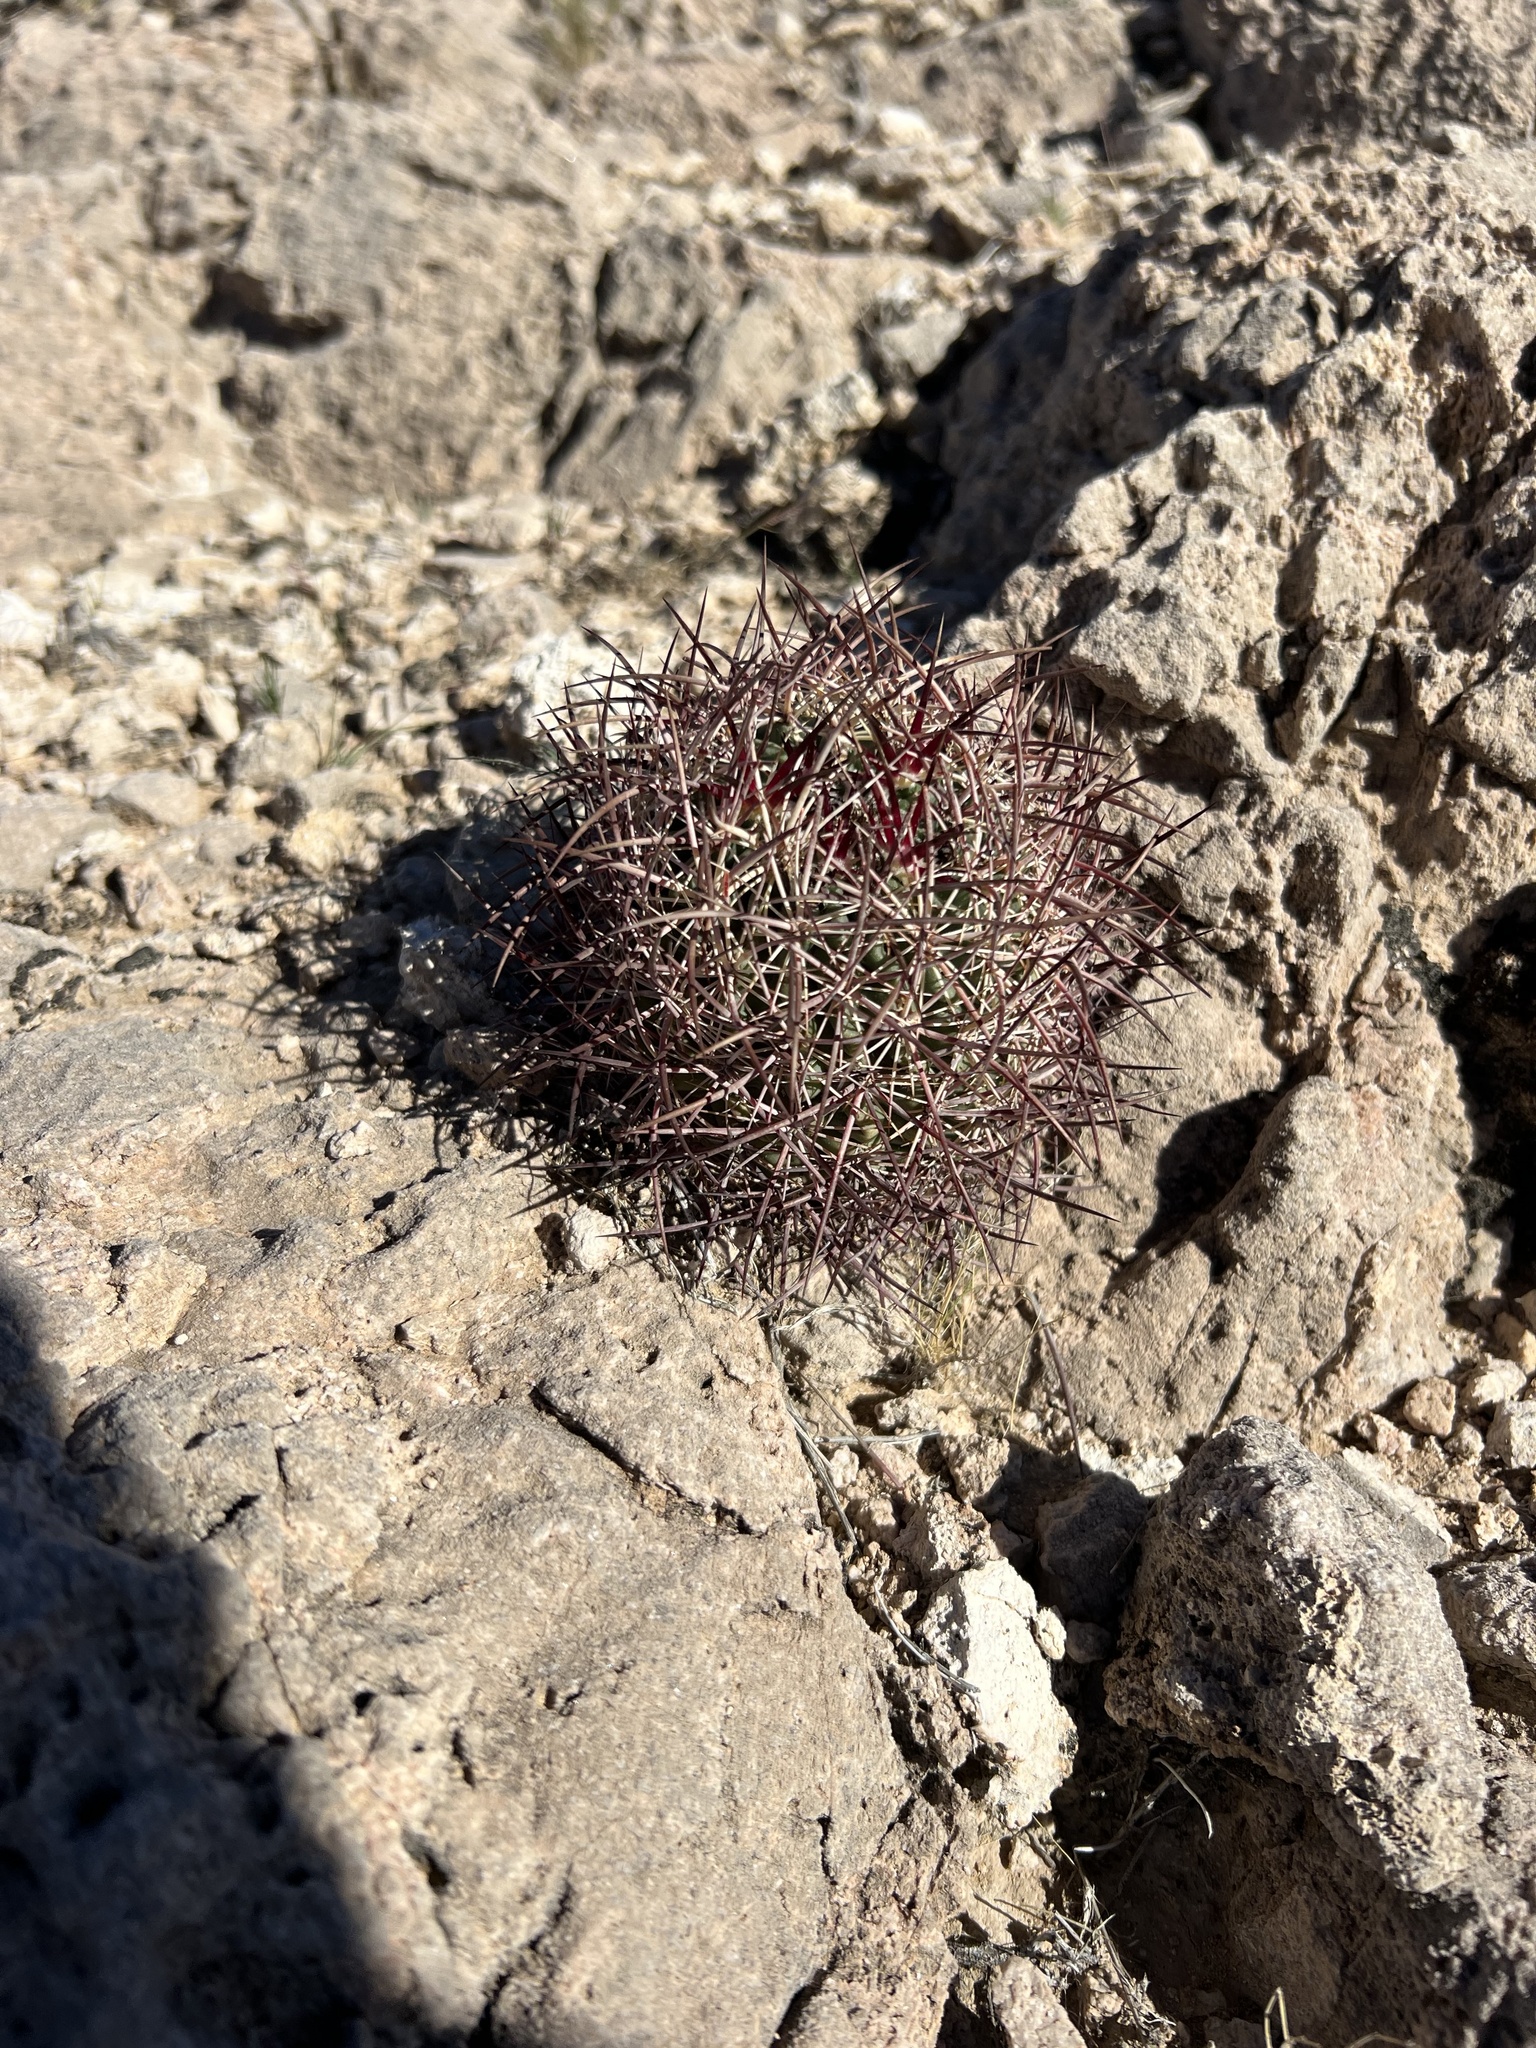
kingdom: Plantae
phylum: Tracheophyta
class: Magnoliopsida
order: Caryophyllales
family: Cactaceae
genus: Sclerocactus
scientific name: Sclerocactus johnsonii
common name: Eight-spine fishhook cactus
